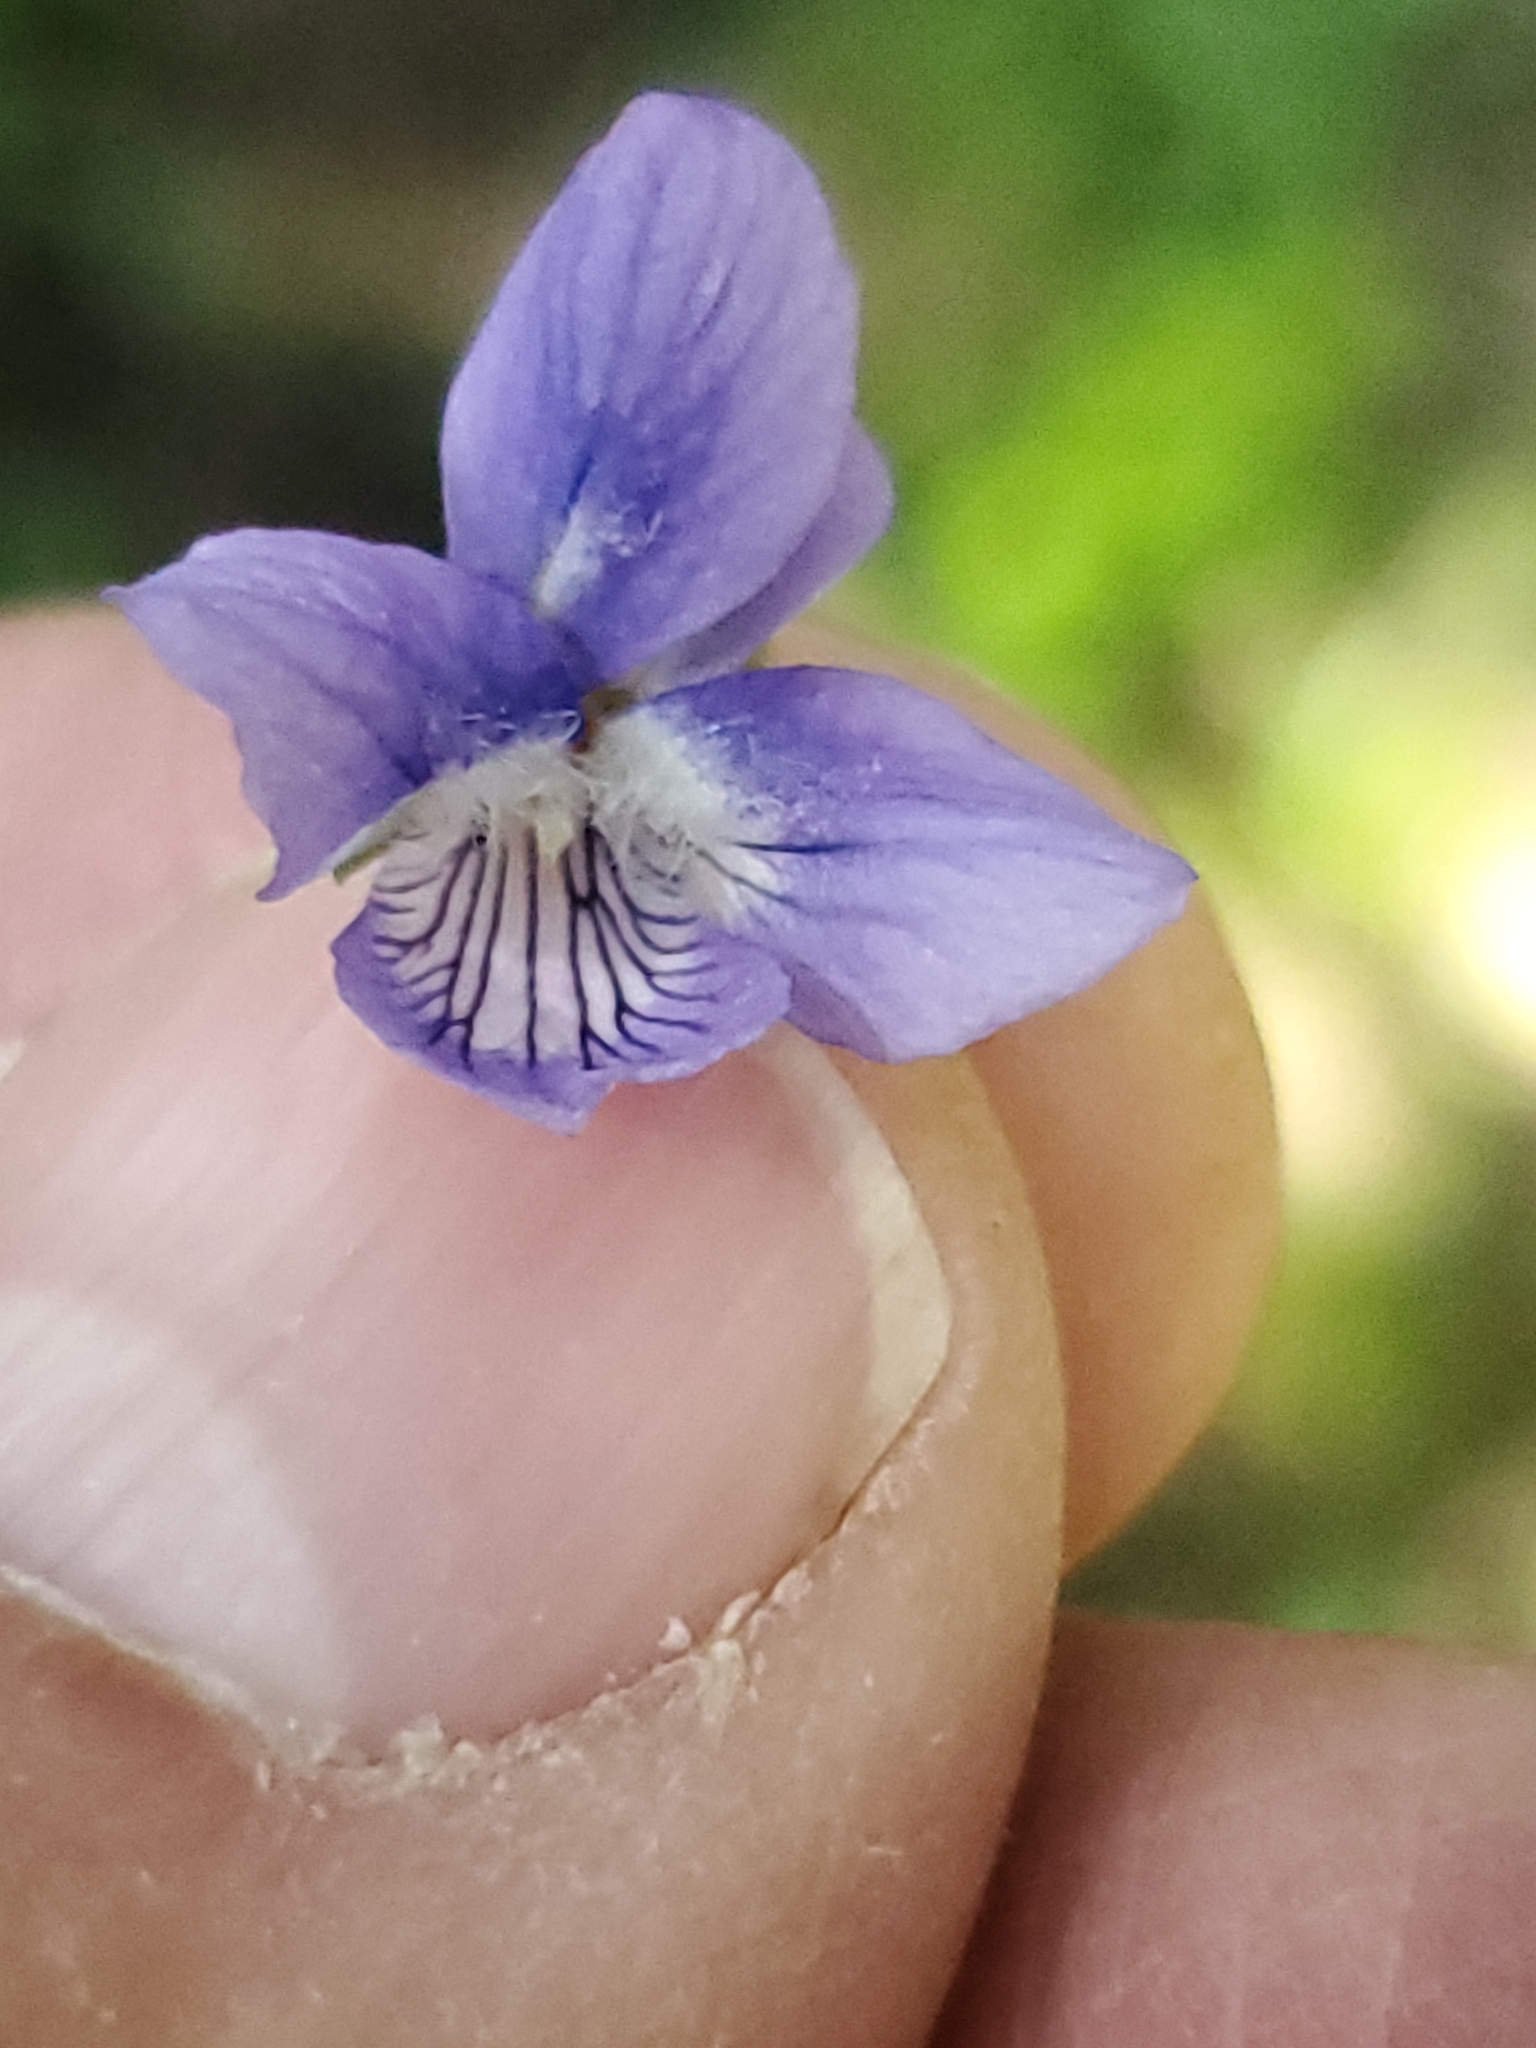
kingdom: Plantae
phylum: Tracheophyta
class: Magnoliopsida
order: Malpighiales
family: Violaceae
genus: Viola
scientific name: Viola adunca
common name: Sand violet
